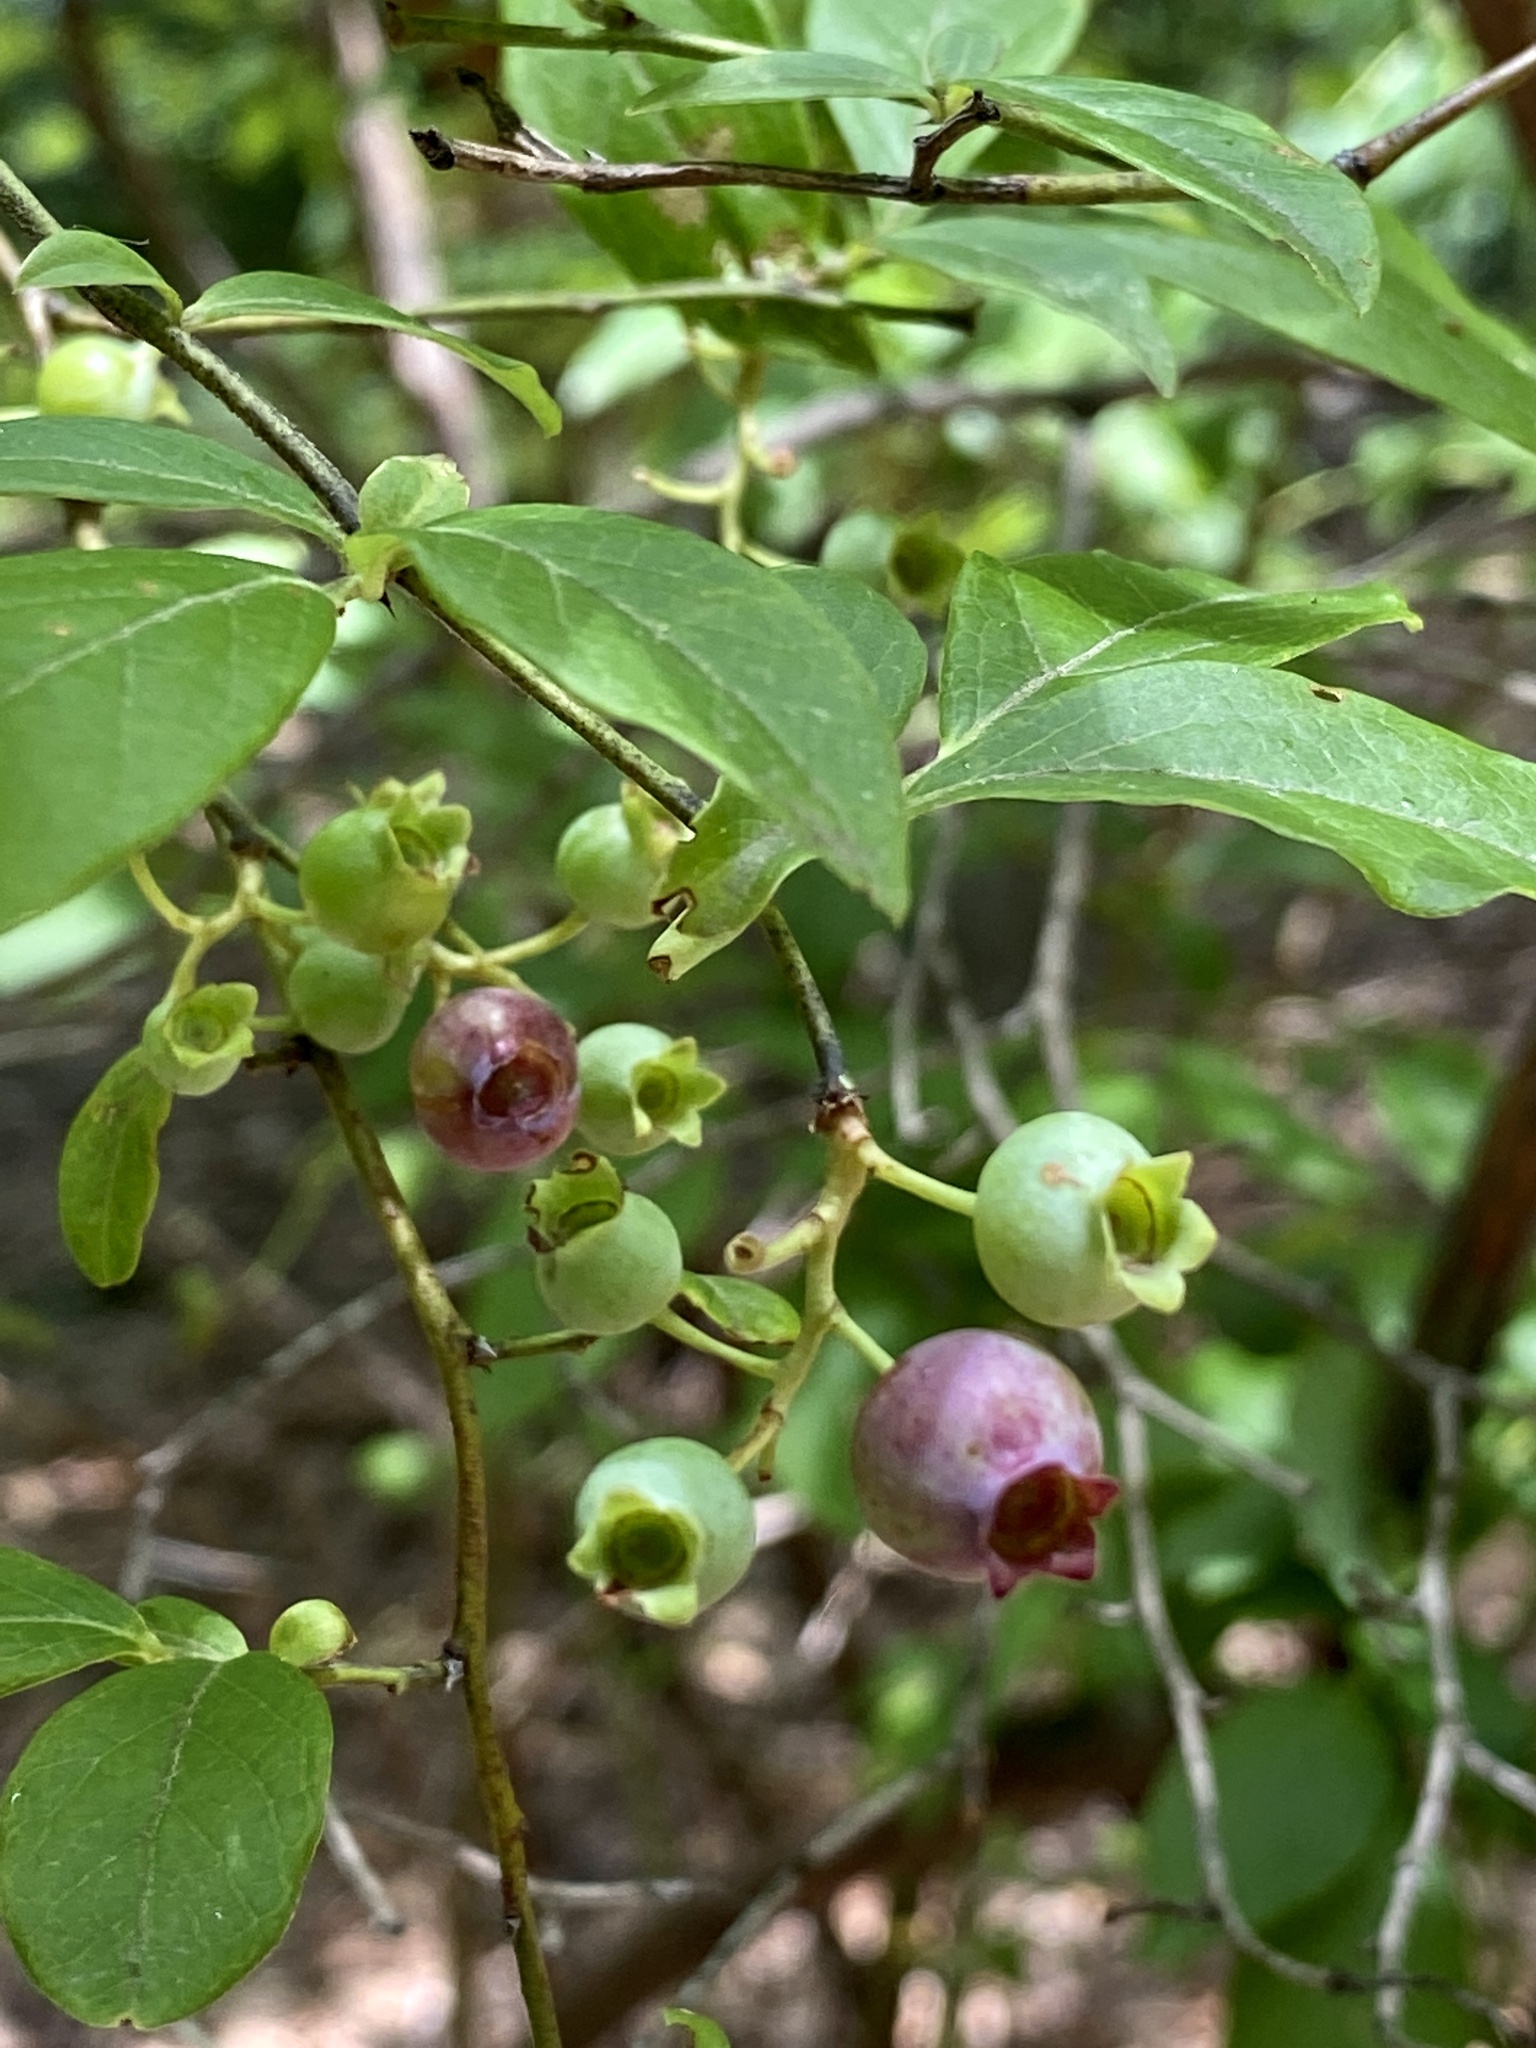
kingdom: Plantae
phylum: Tracheophyta
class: Magnoliopsida
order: Ericales
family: Ericaceae
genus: Vaccinium
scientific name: Vaccinium corymbosum
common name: Blueberry
